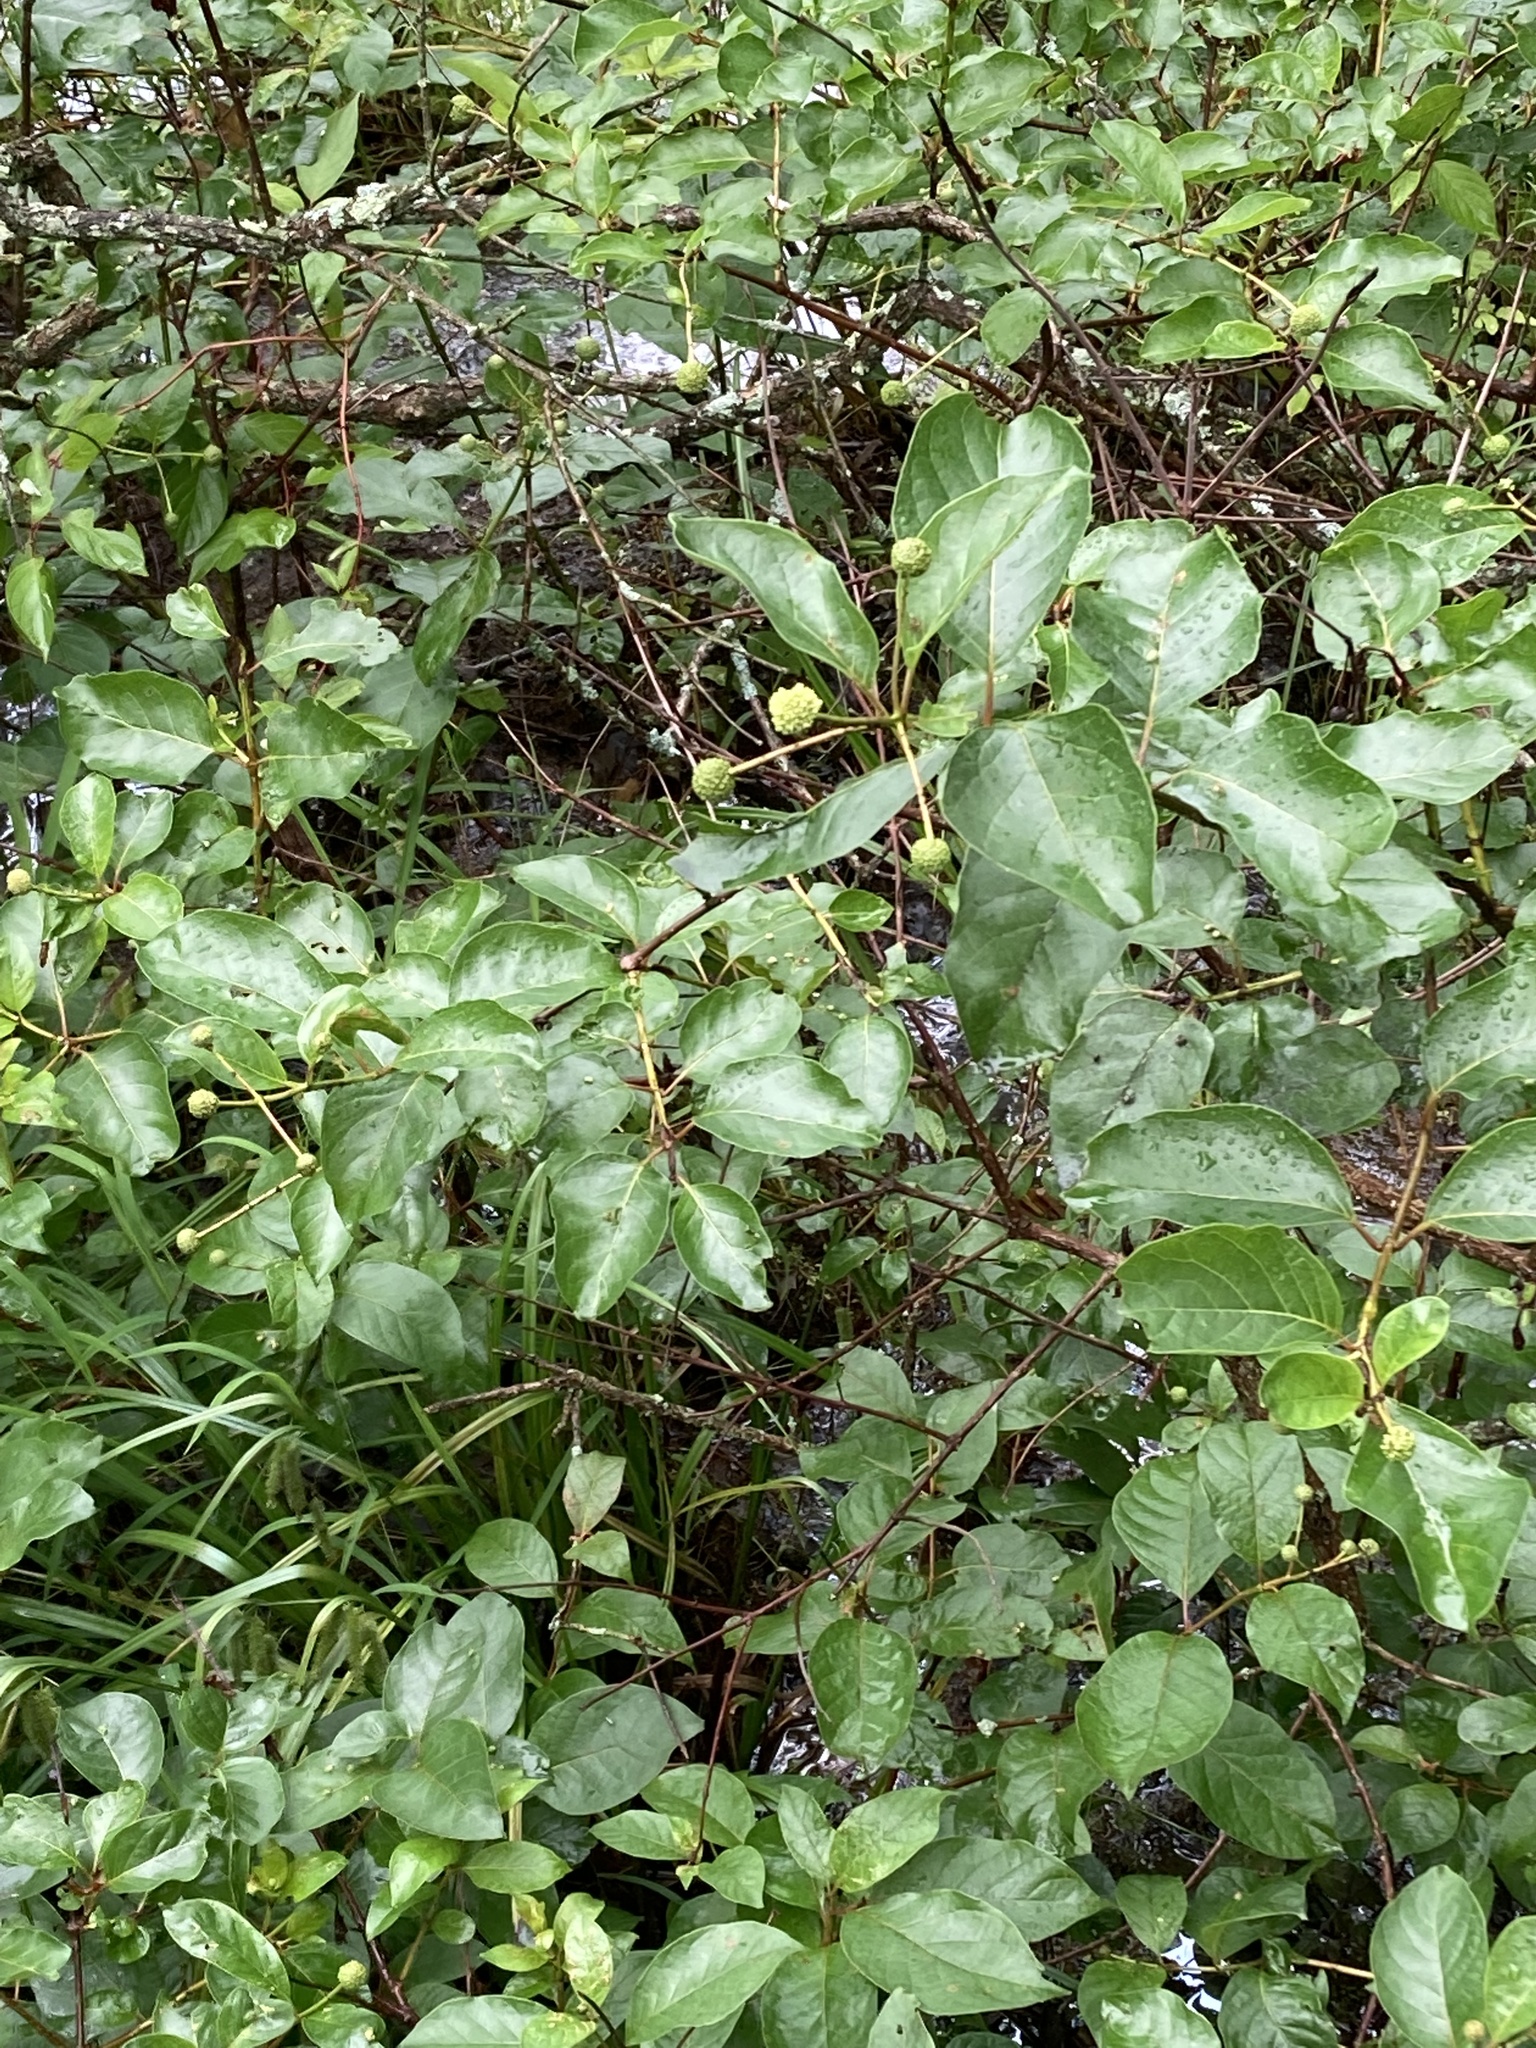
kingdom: Plantae
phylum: Tracheophyta
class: Magnoliopsida
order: Gentianales
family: Rubiaceae
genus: Cephalanthus
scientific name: Cephalanthus occidentalis
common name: Button-willow
